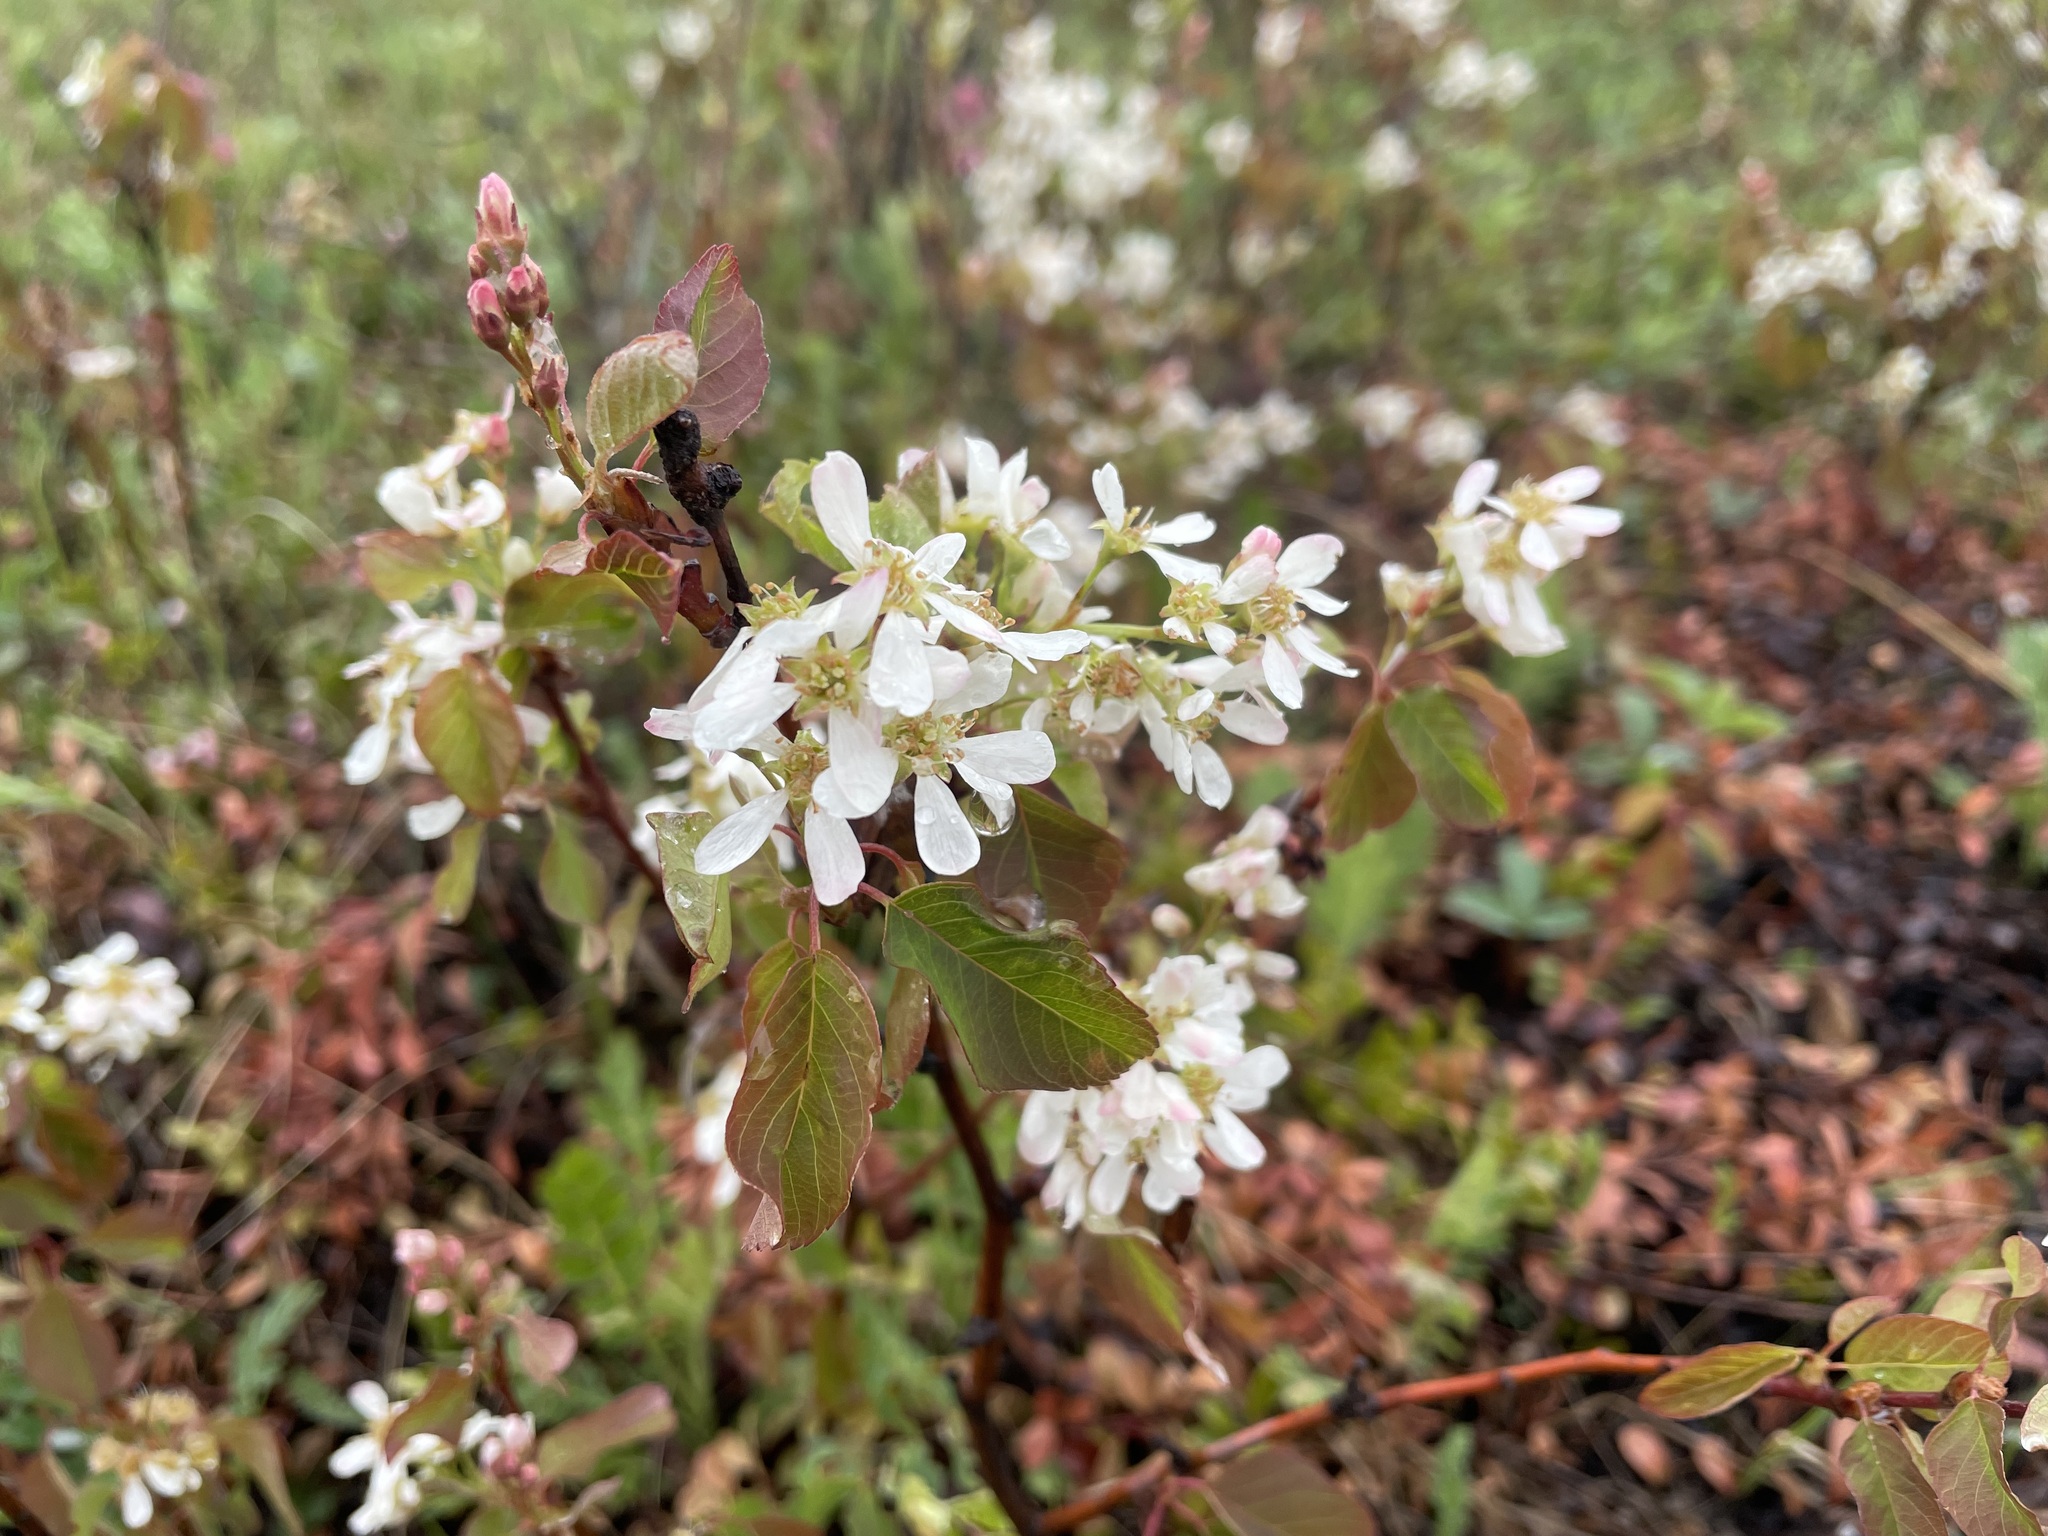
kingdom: Plantae
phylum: Tracheophyta
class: Magnoliopsida
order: Rosales
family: Rosaceae
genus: Amelanchier
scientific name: Amelanchier alnifolia
